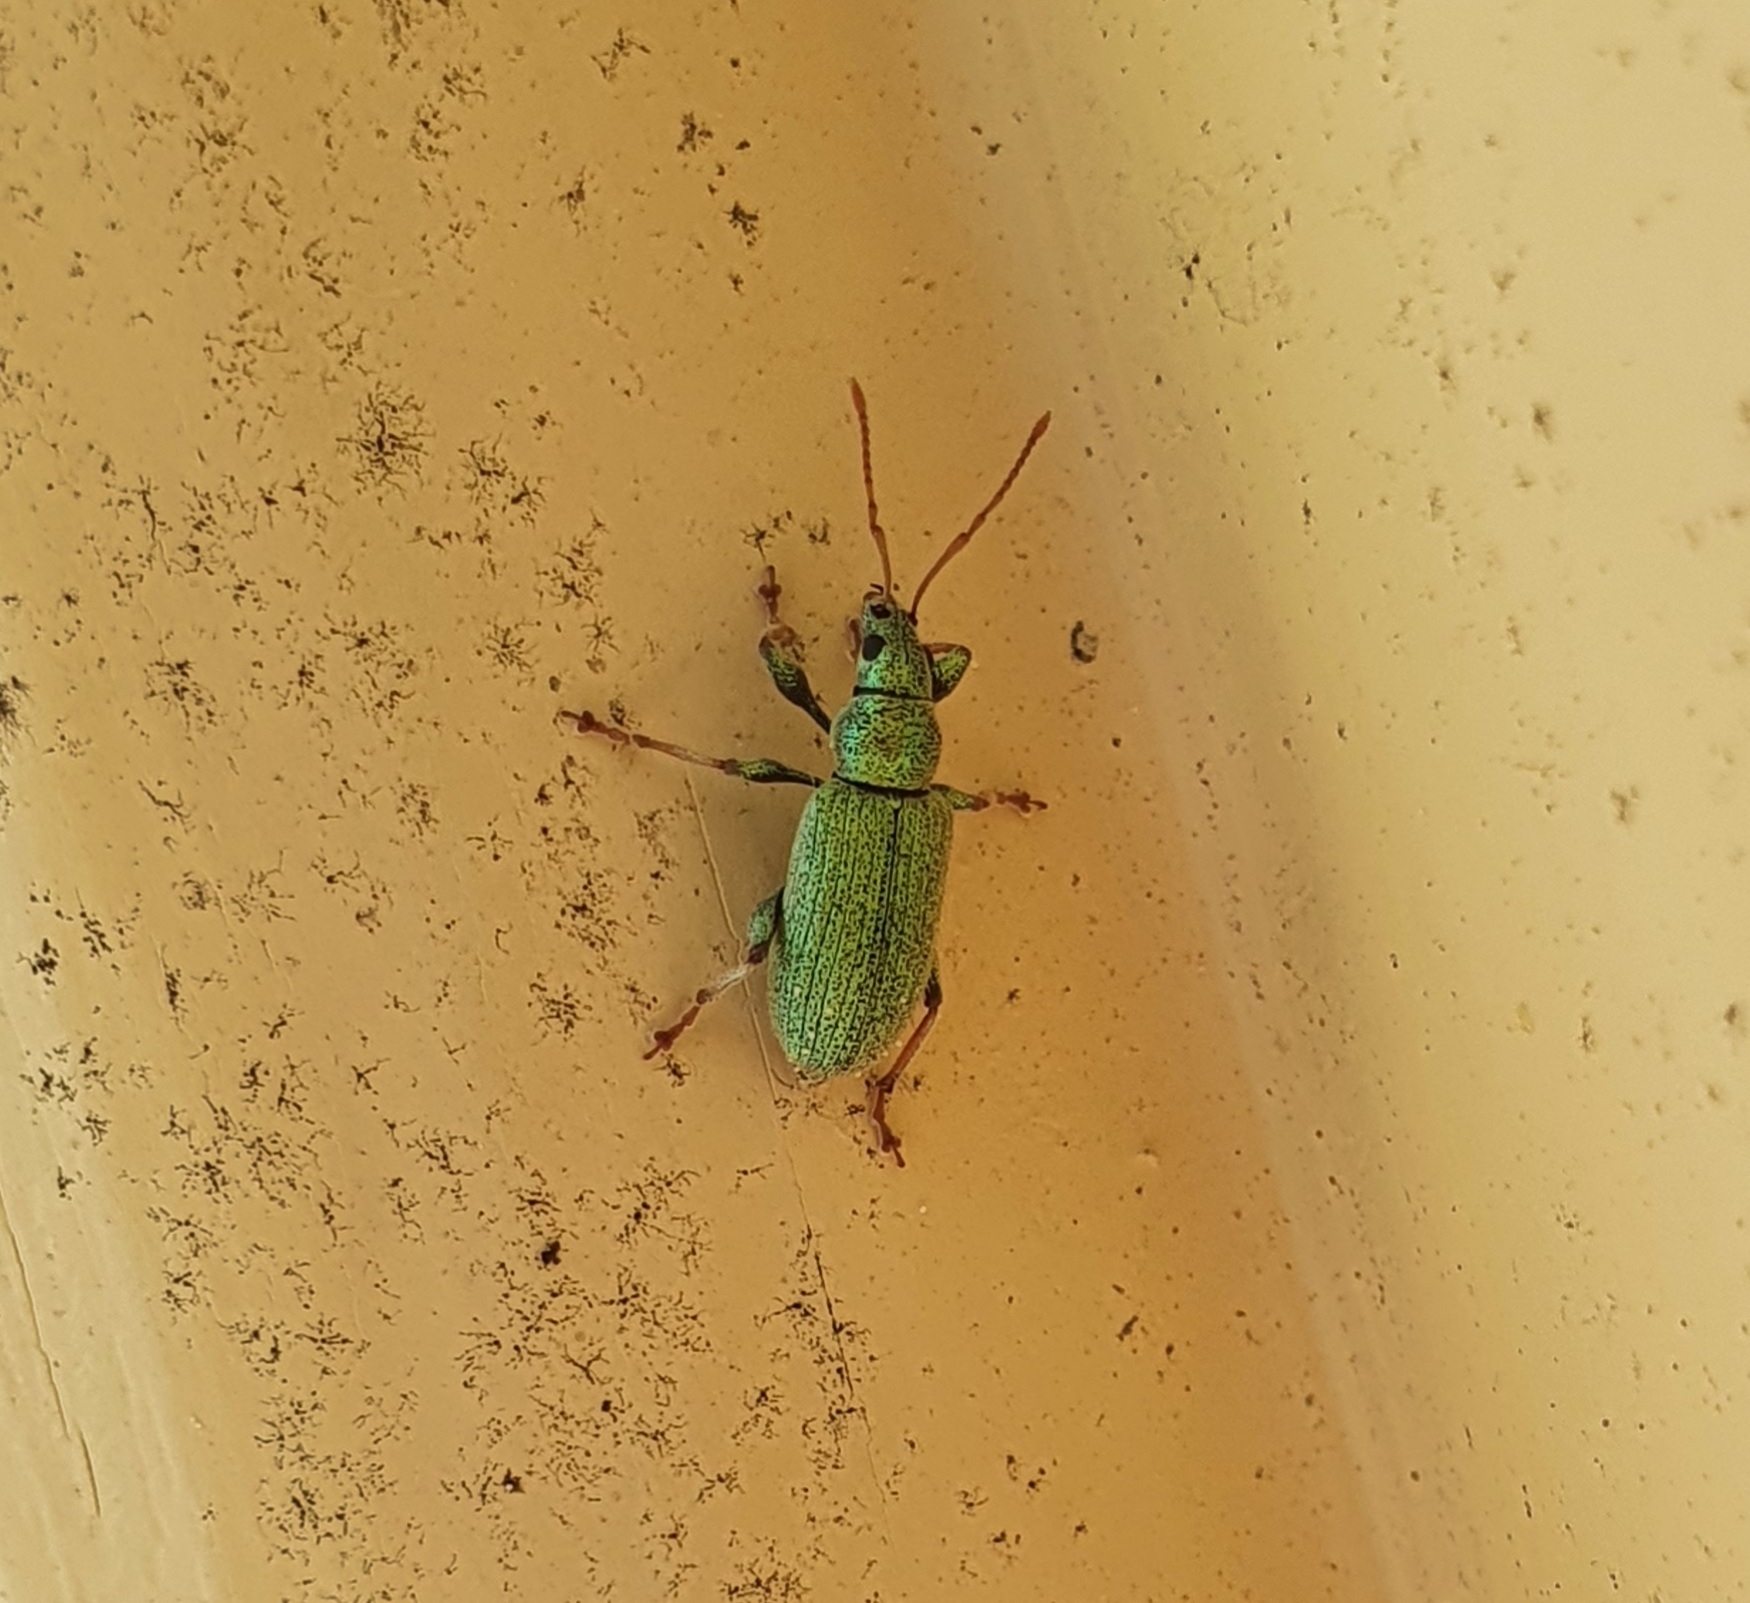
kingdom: Animalia
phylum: Arthropoda
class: Insecta
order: Coleoptera
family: Curculionidae
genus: Phyllobius
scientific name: Phyllobius argentatus
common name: Silver-green leaf weevil
